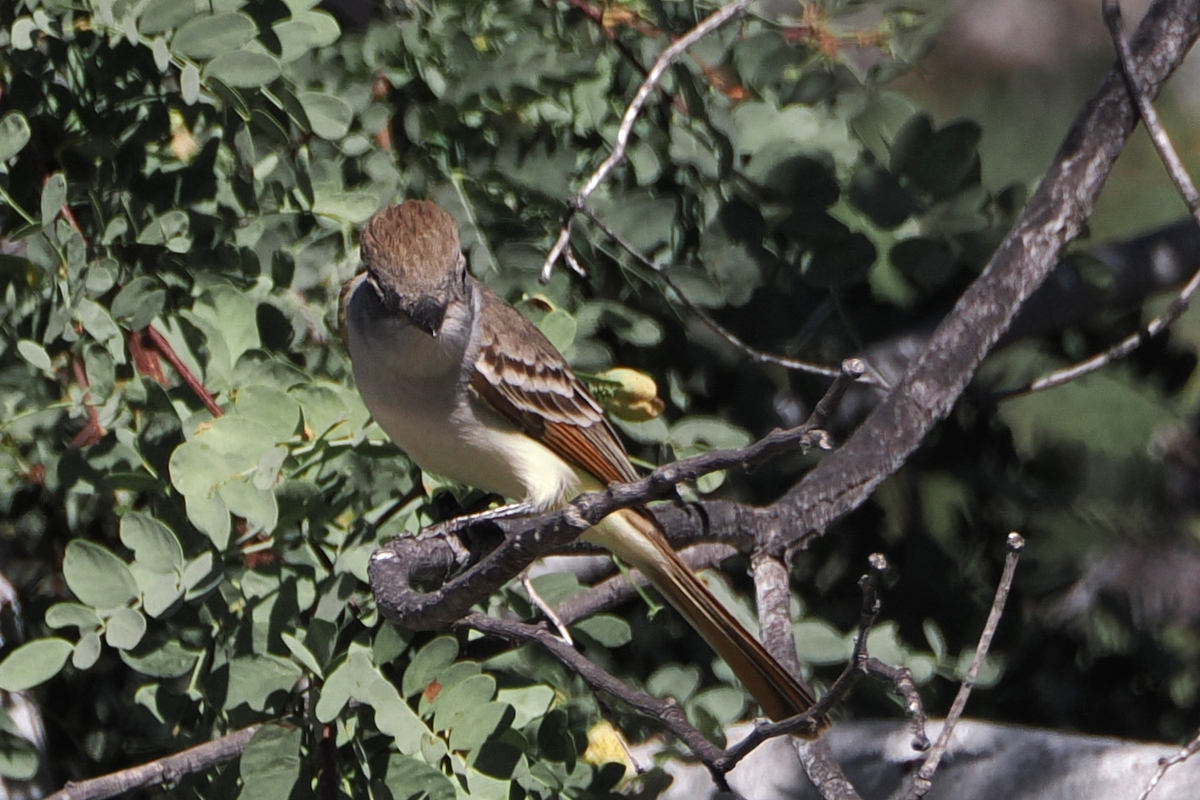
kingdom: Animalia
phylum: Chordata
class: Aves
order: Passeriformes
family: Tyrannidae
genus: Myiarchus
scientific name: Myiarchus cinerascens
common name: Ash-throated flycatcher
